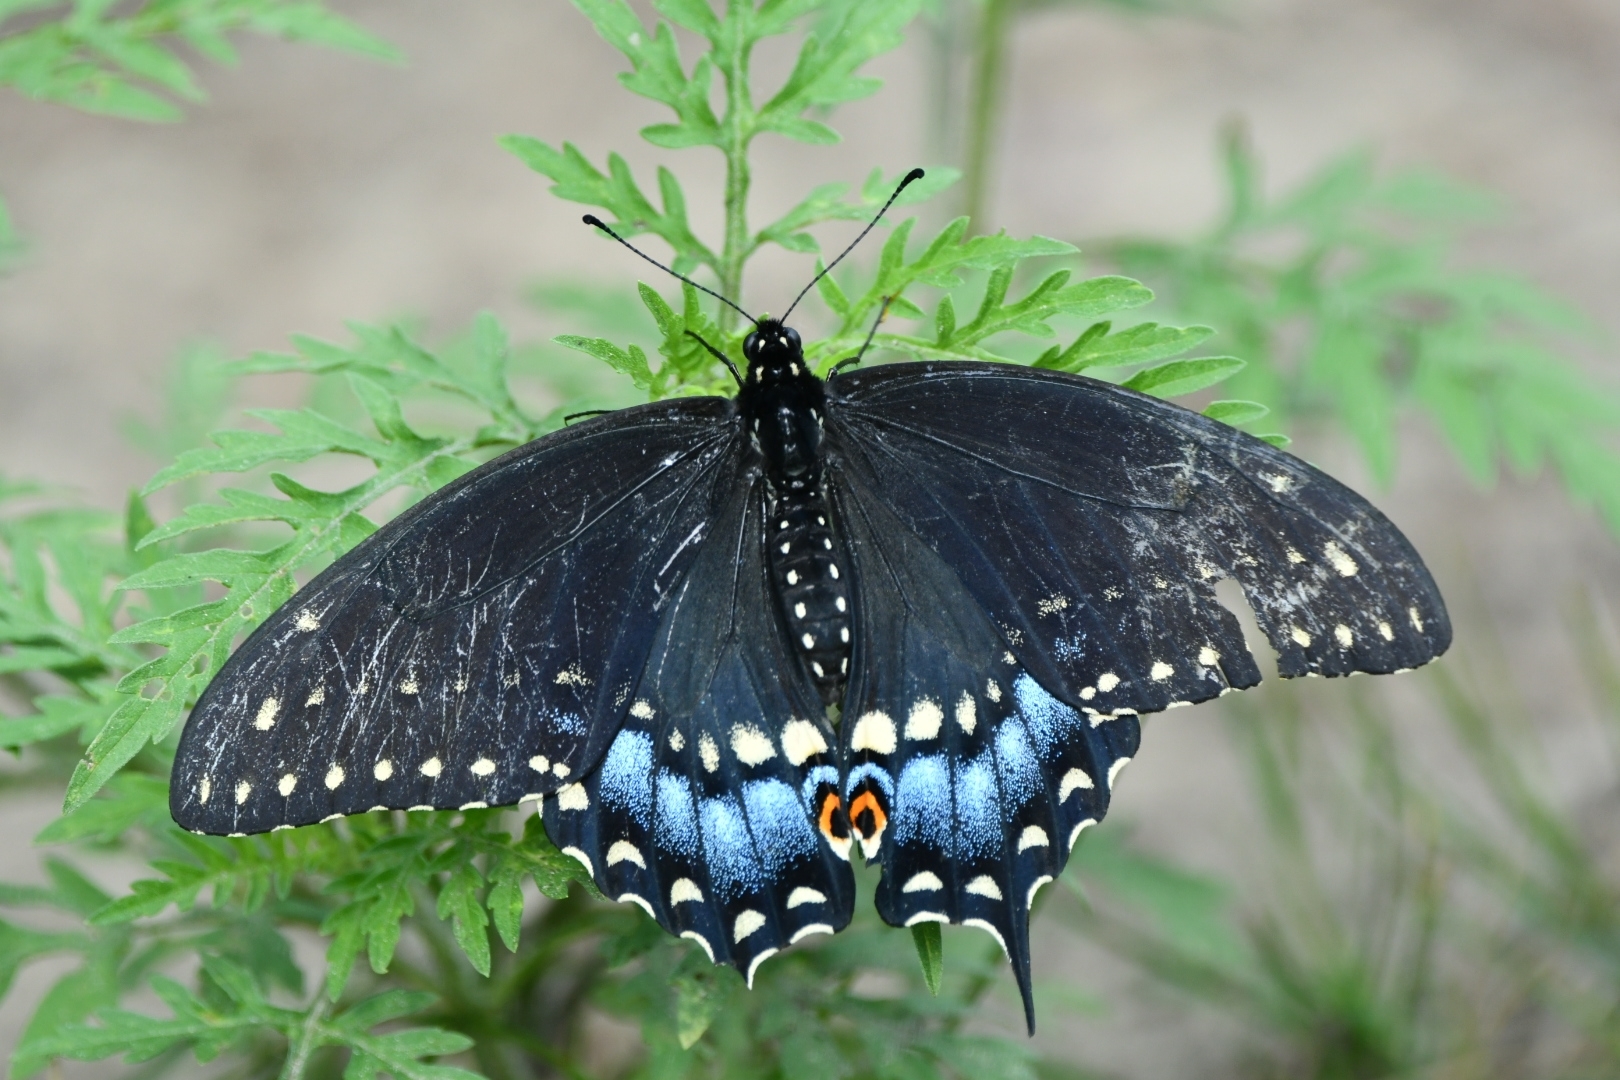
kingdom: Animalia
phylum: Arthropoda
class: Insecta
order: Lepidoptera
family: Papilionidae
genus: Papilio
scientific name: Papilio polyxenes
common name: Black swallowtail
